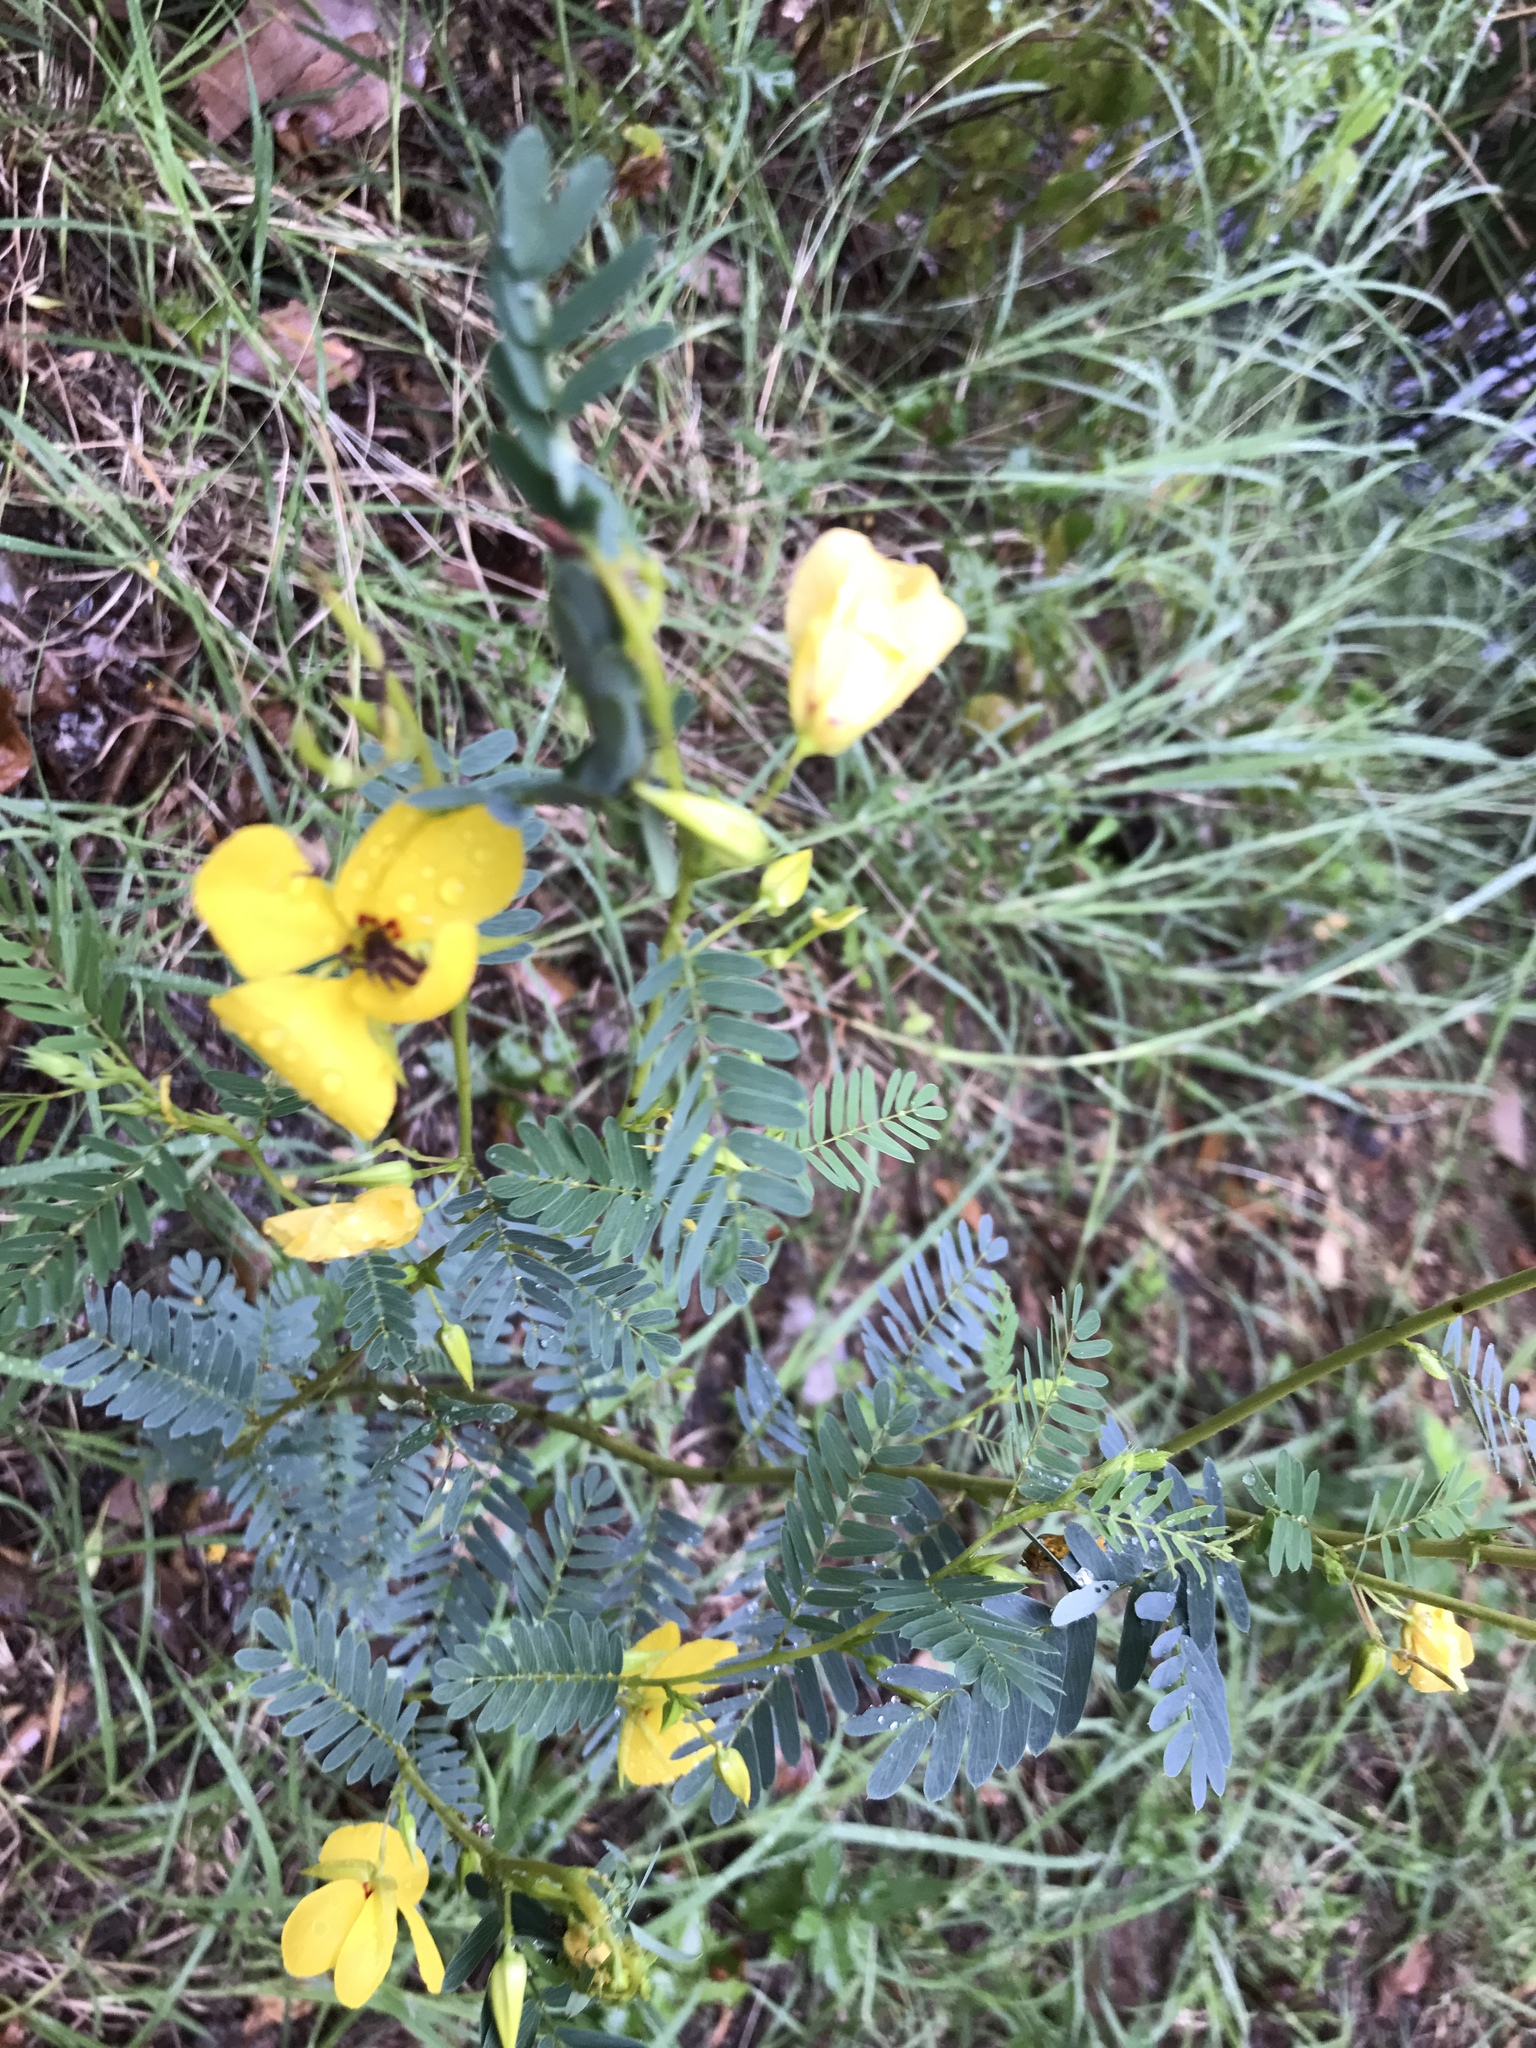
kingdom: Plantae
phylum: Tracheophyta
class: Magnoliopsida
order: Fabales
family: Fabaceae
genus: Chamaecrista
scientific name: Chamaecrista fasciculata
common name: Golden cassia
